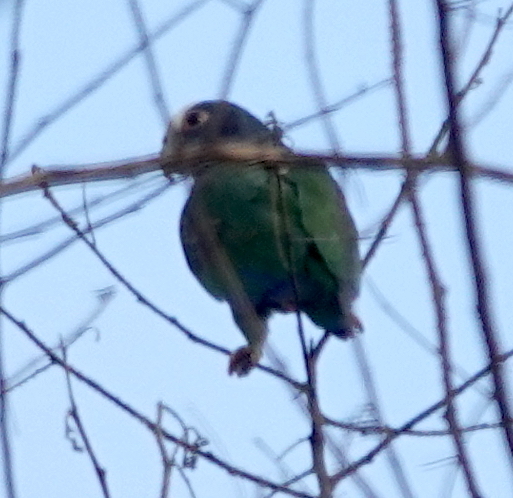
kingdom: Animalia
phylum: Chordata
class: Aves
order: Psittaciformes
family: Psittacidae
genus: Pionus
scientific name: Pionus senilis
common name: White-crowned parrot
